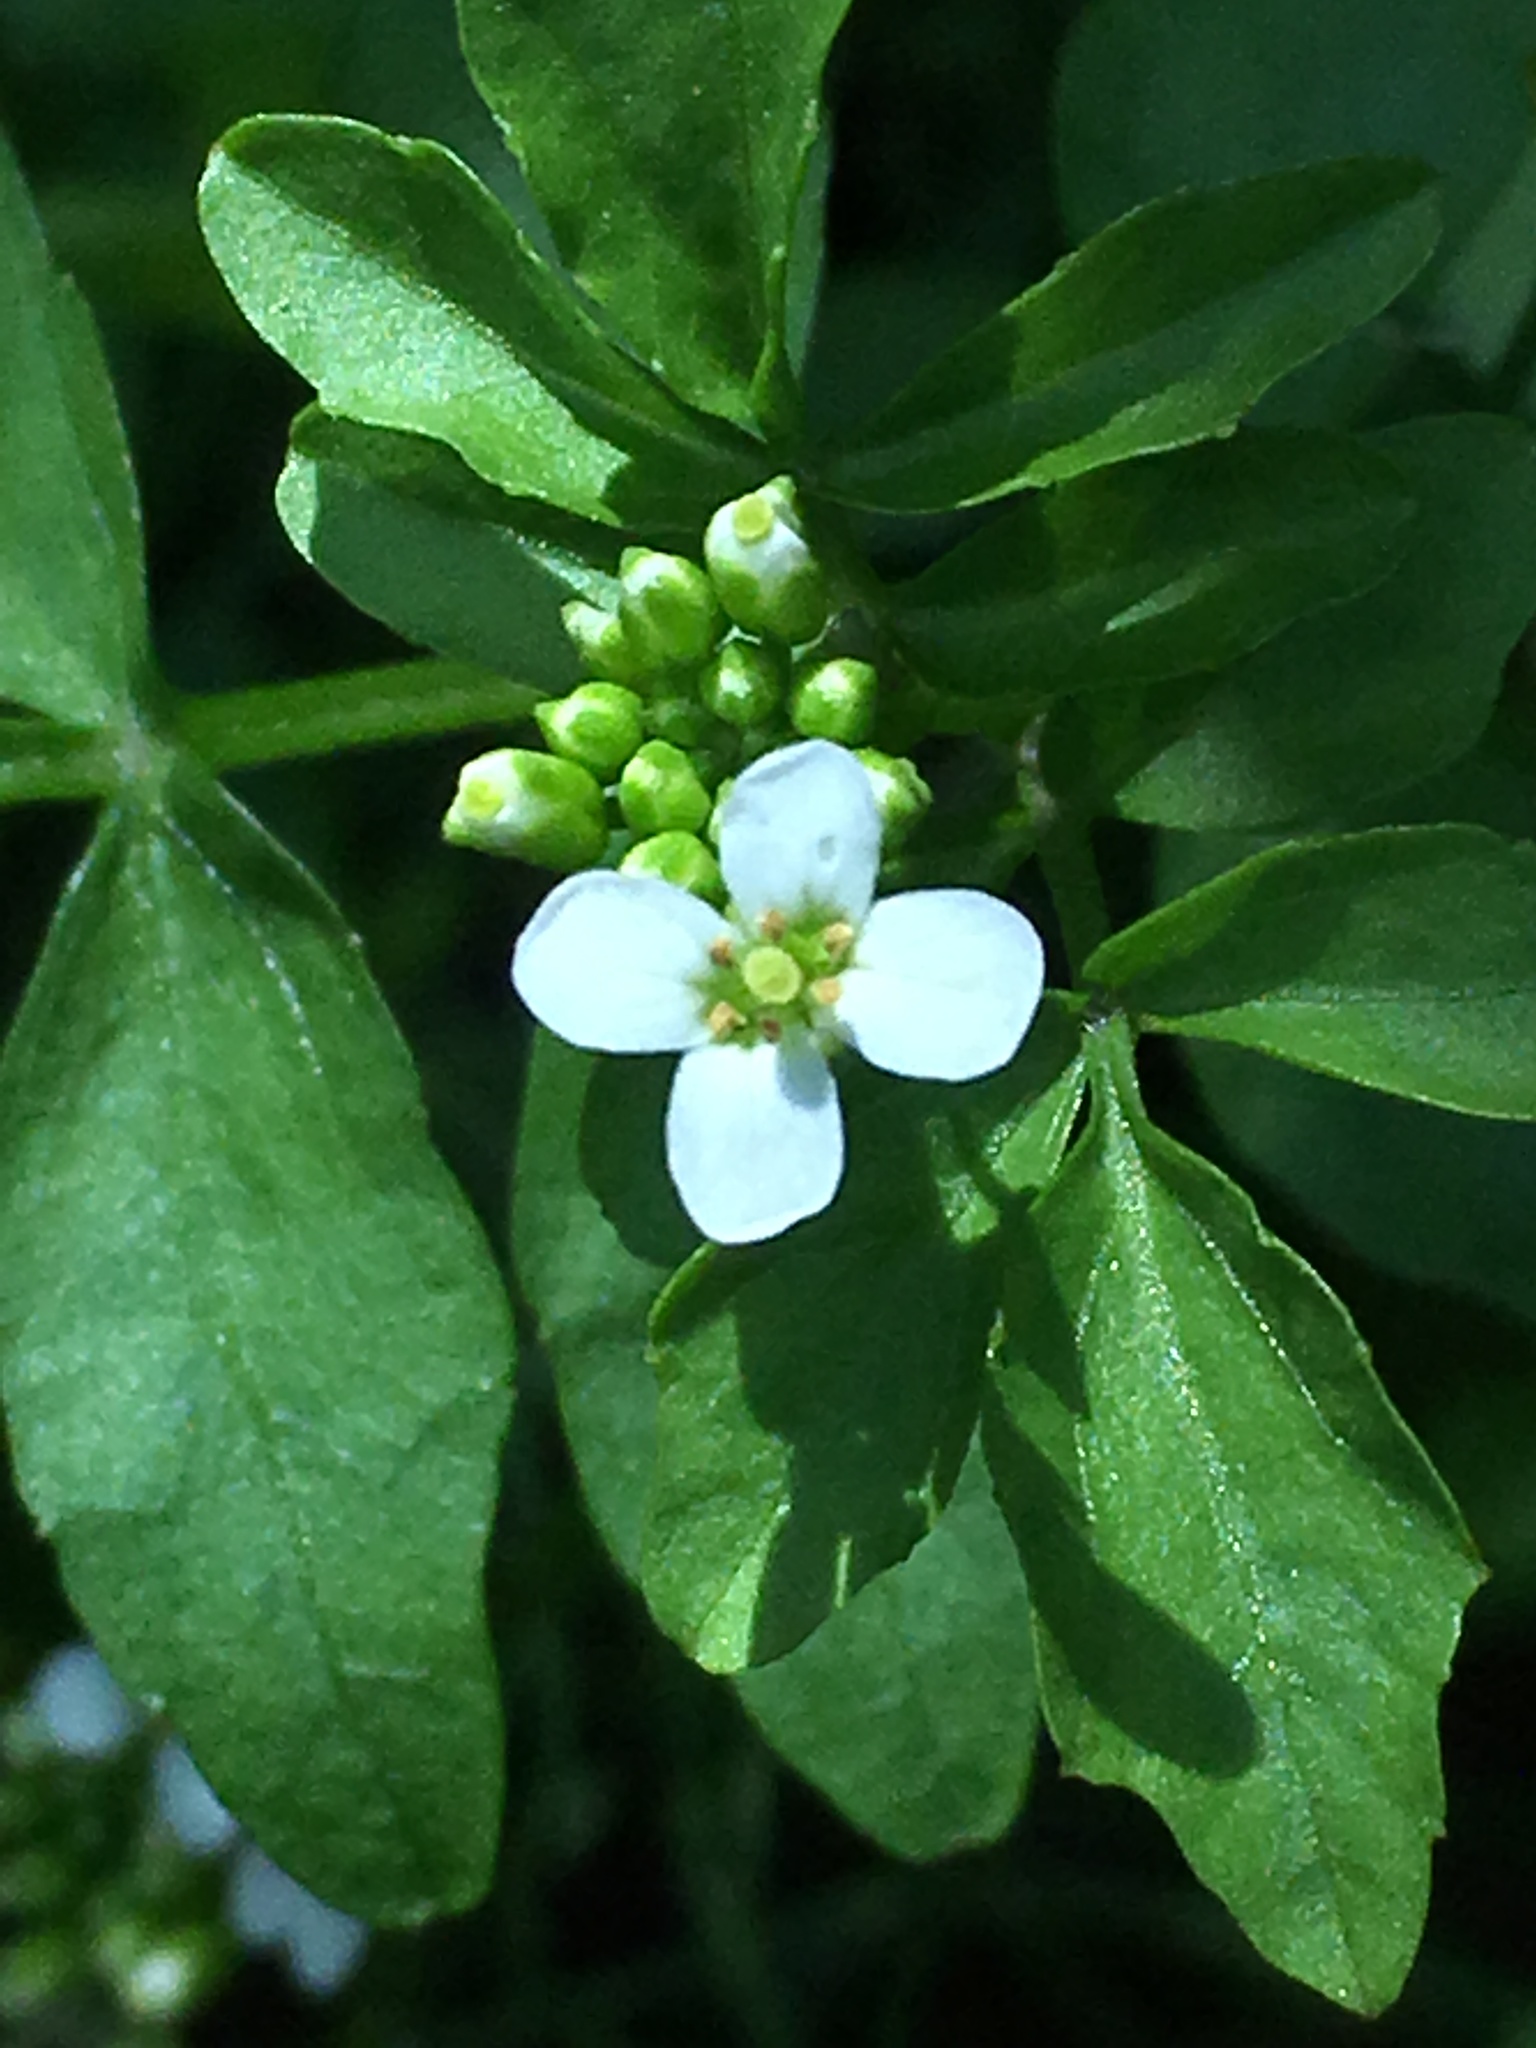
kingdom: Plantae
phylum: Tracheophyta
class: Magnoliopsida
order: Brassicales
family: Brassicaceae
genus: Nasturtium
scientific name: Nasturtium officinale
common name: Watercress
